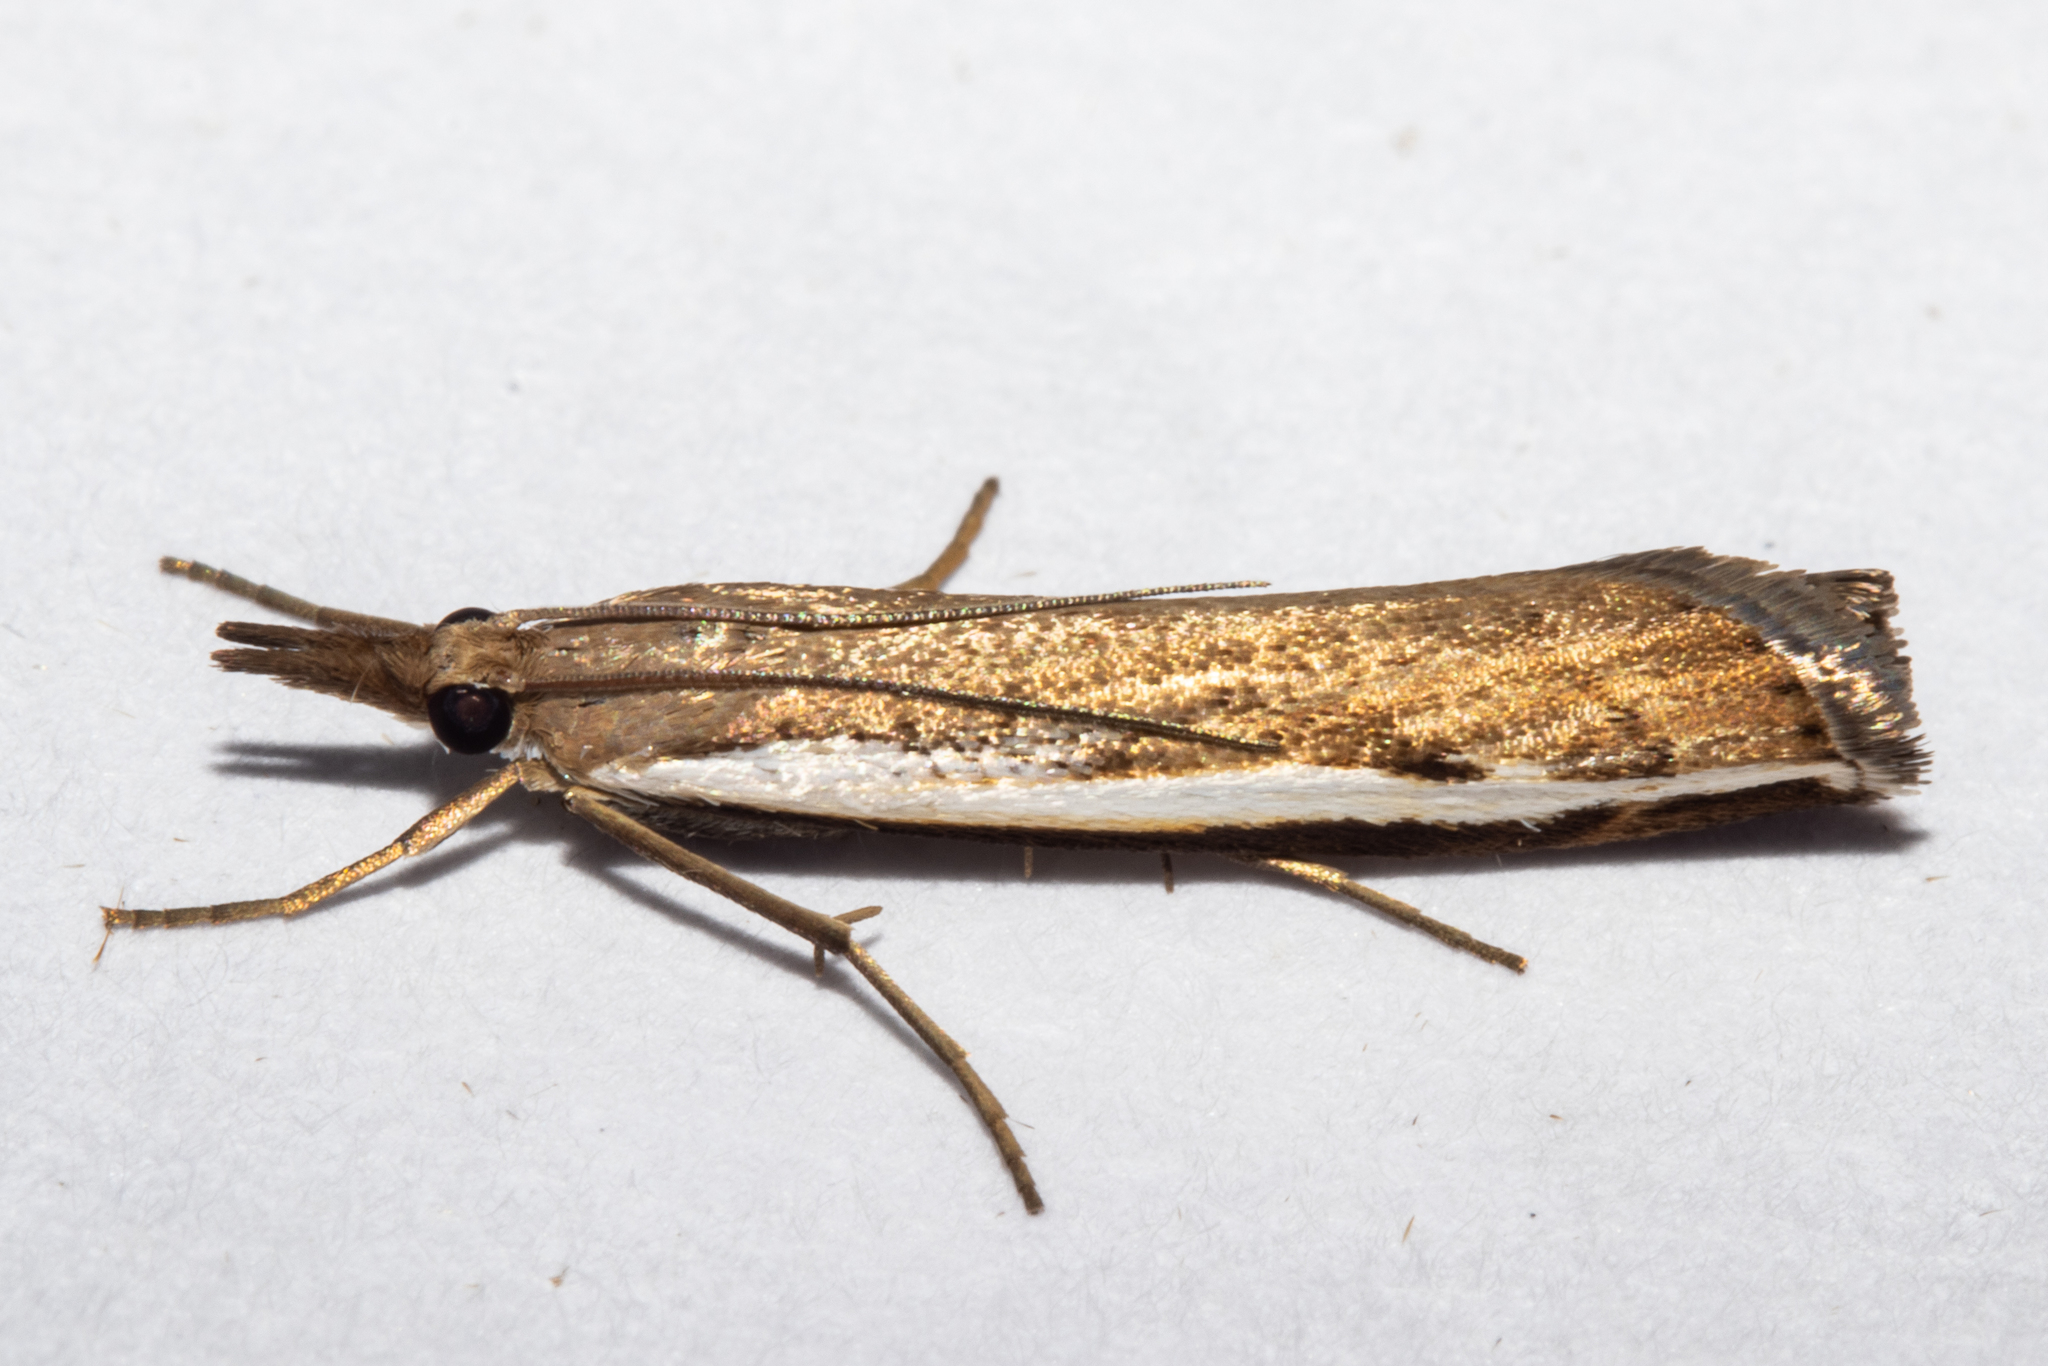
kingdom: Animalia
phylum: Arthropoda
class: Insecta
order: Lepidoptera
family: Crambidae
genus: Orocrambus
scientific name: Orocrambus flexuosellus
